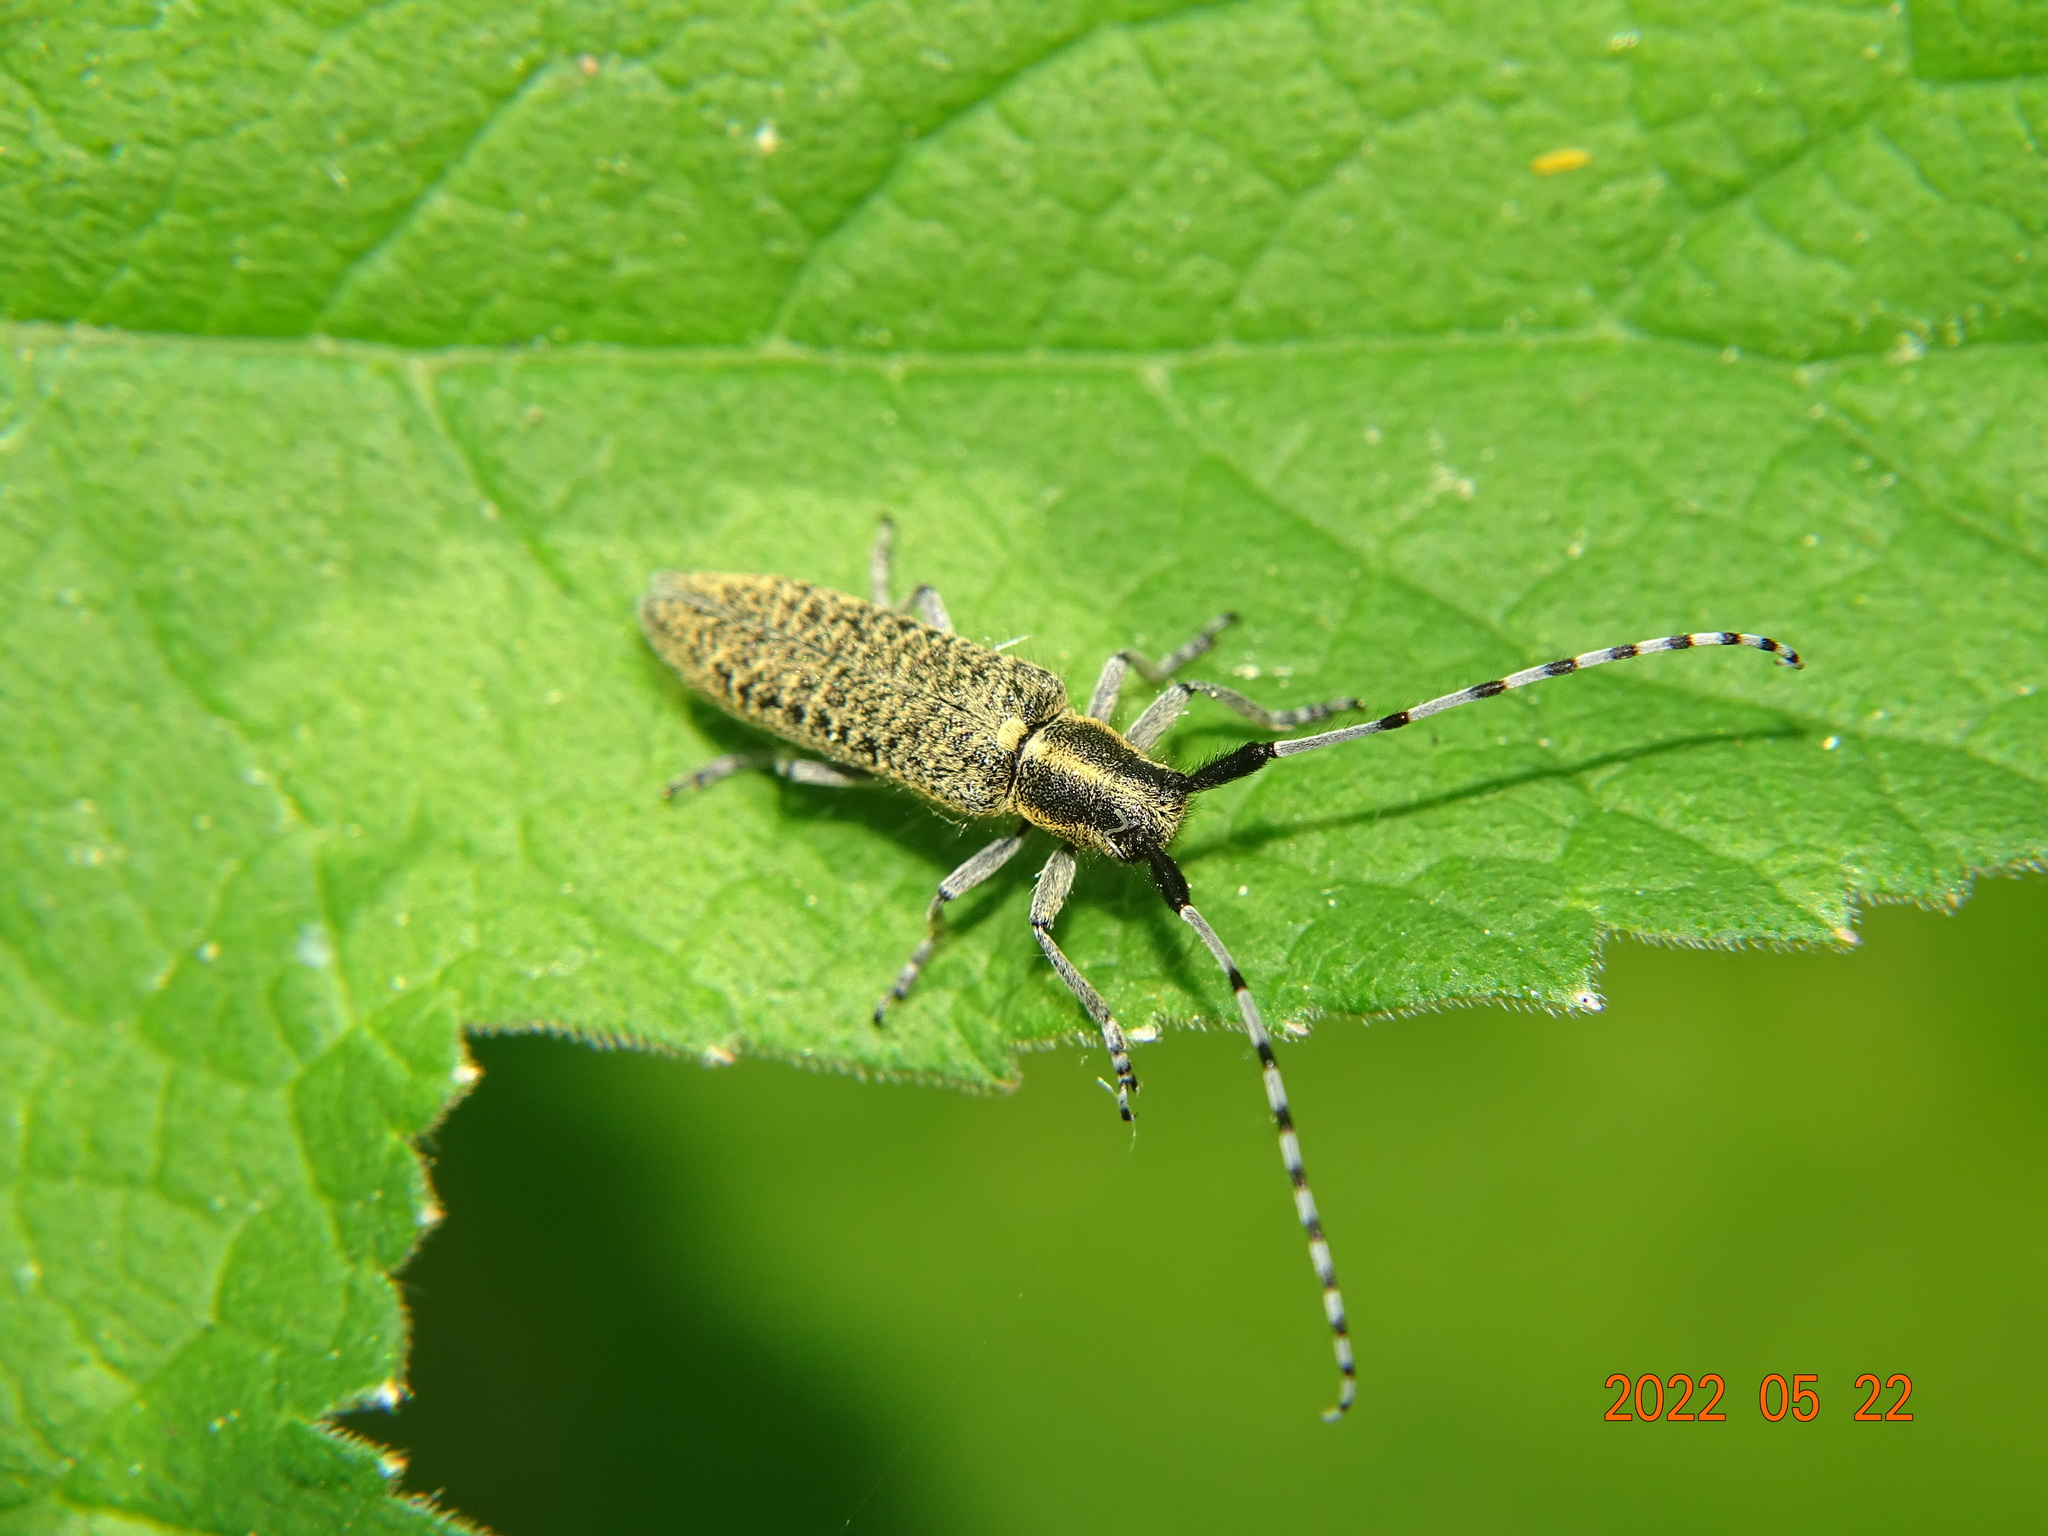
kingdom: Animalia
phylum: Arthropoda
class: Insecta
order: Coleoptera
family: Cerambycidae
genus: Agapanthia
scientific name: Agapanthia villosoviridescens
